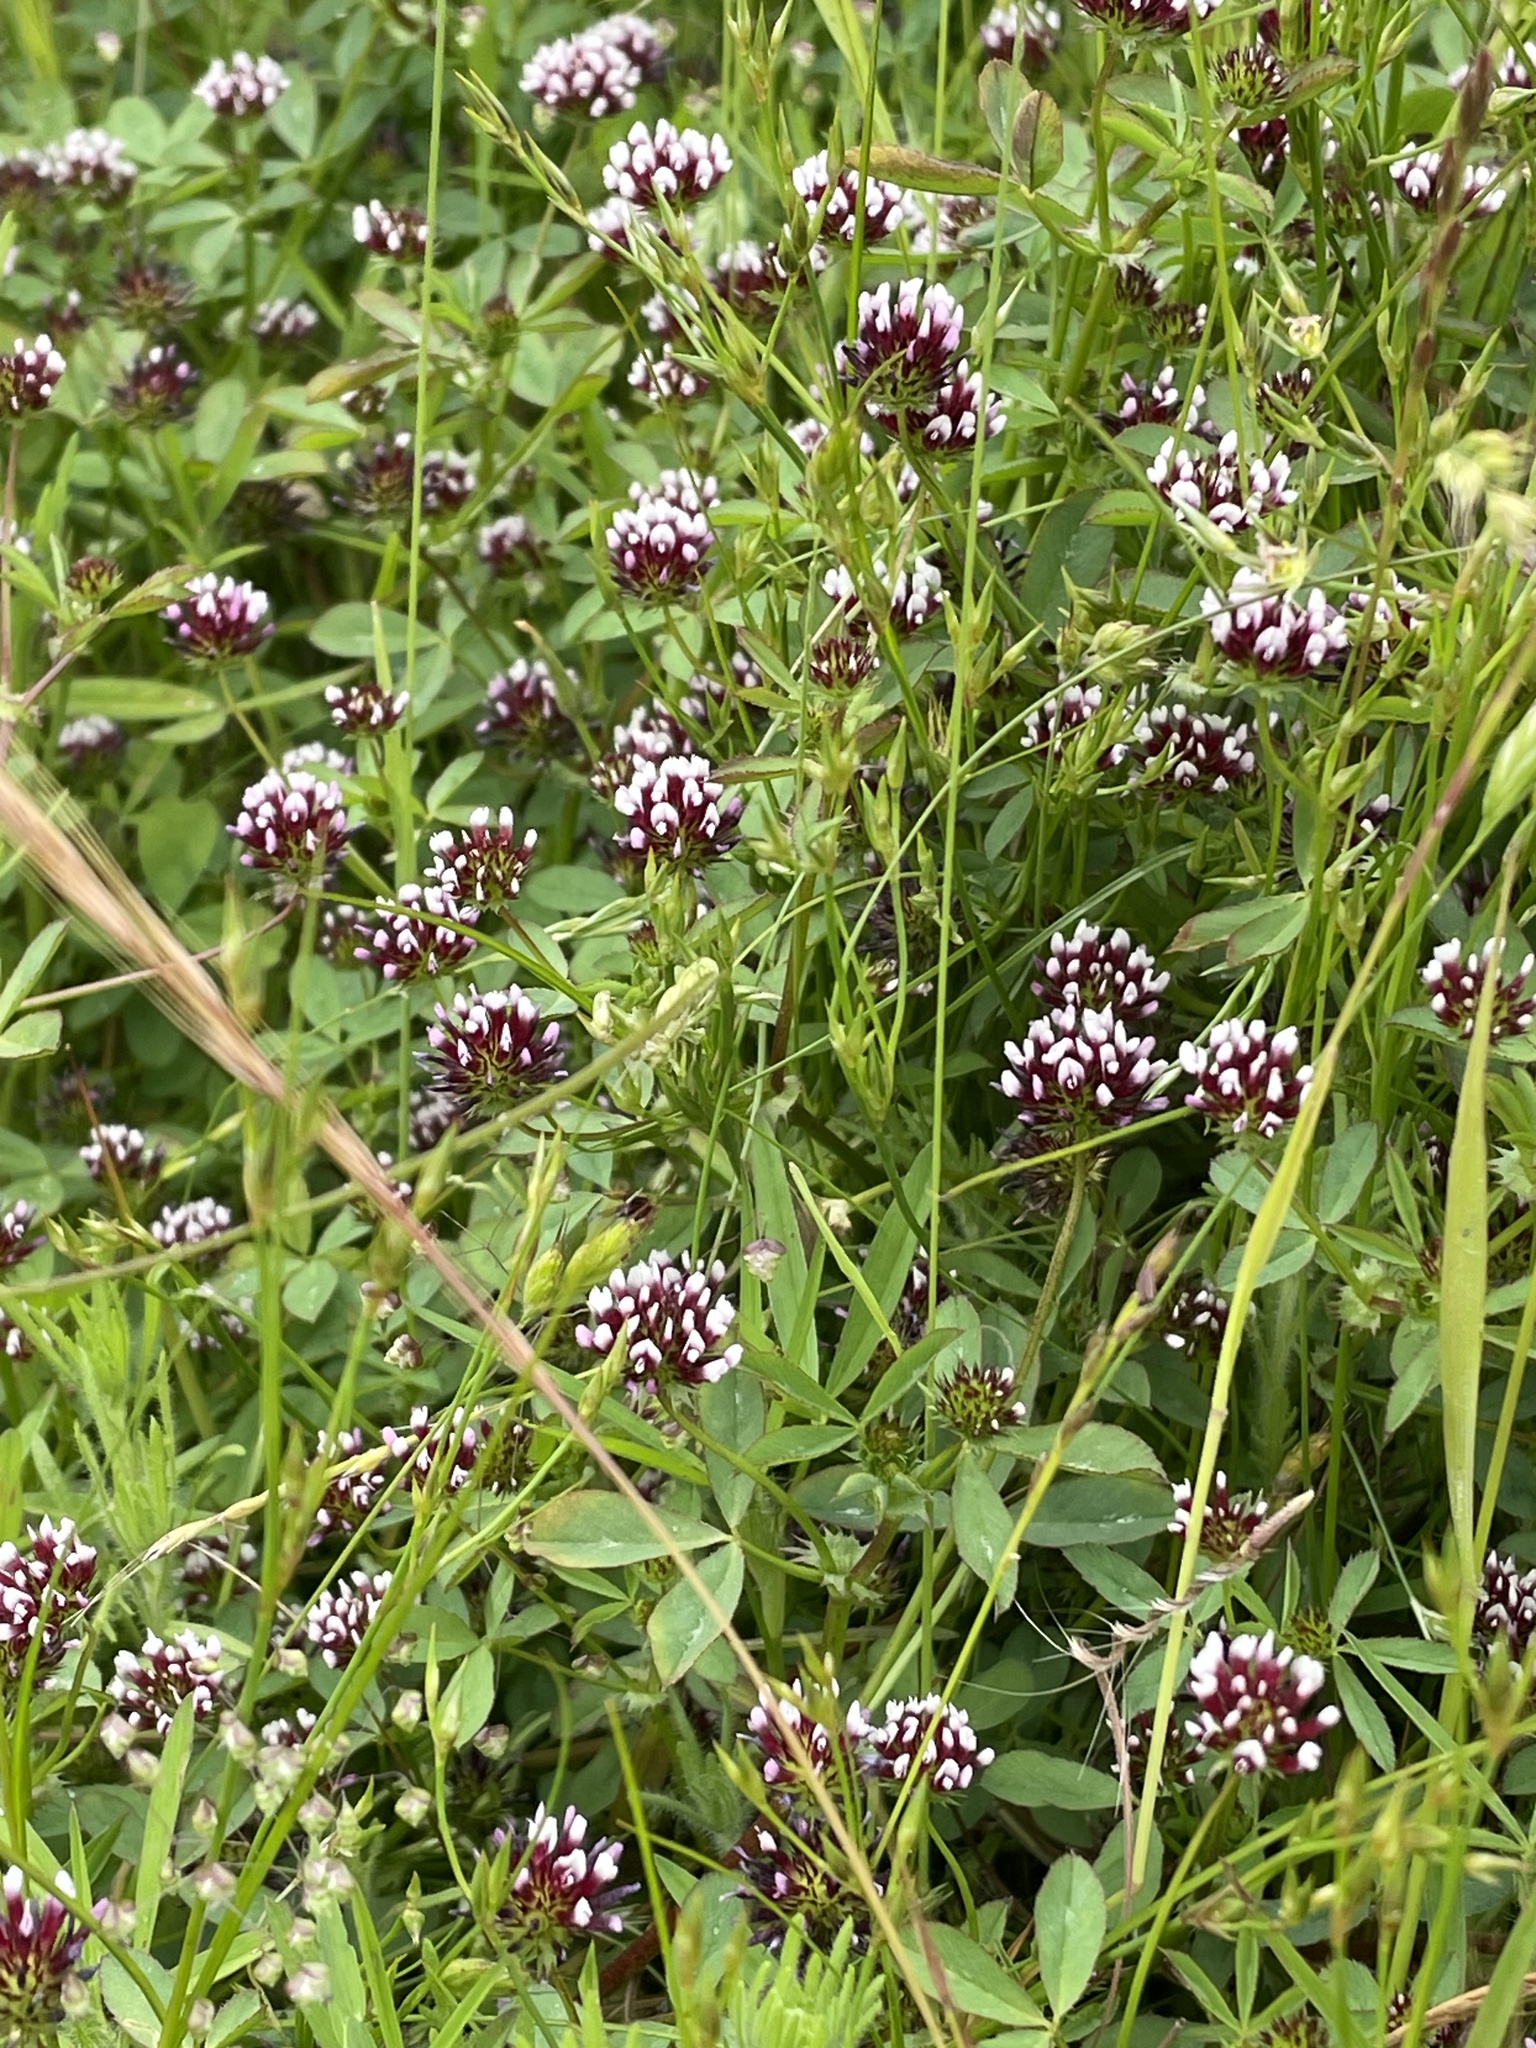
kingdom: Plantae
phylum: Tracheophyta
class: Magnoliopsida
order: Fabales
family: Fabaceae
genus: Trifolium
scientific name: Trifolium variegatum
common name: Whitetip clover
